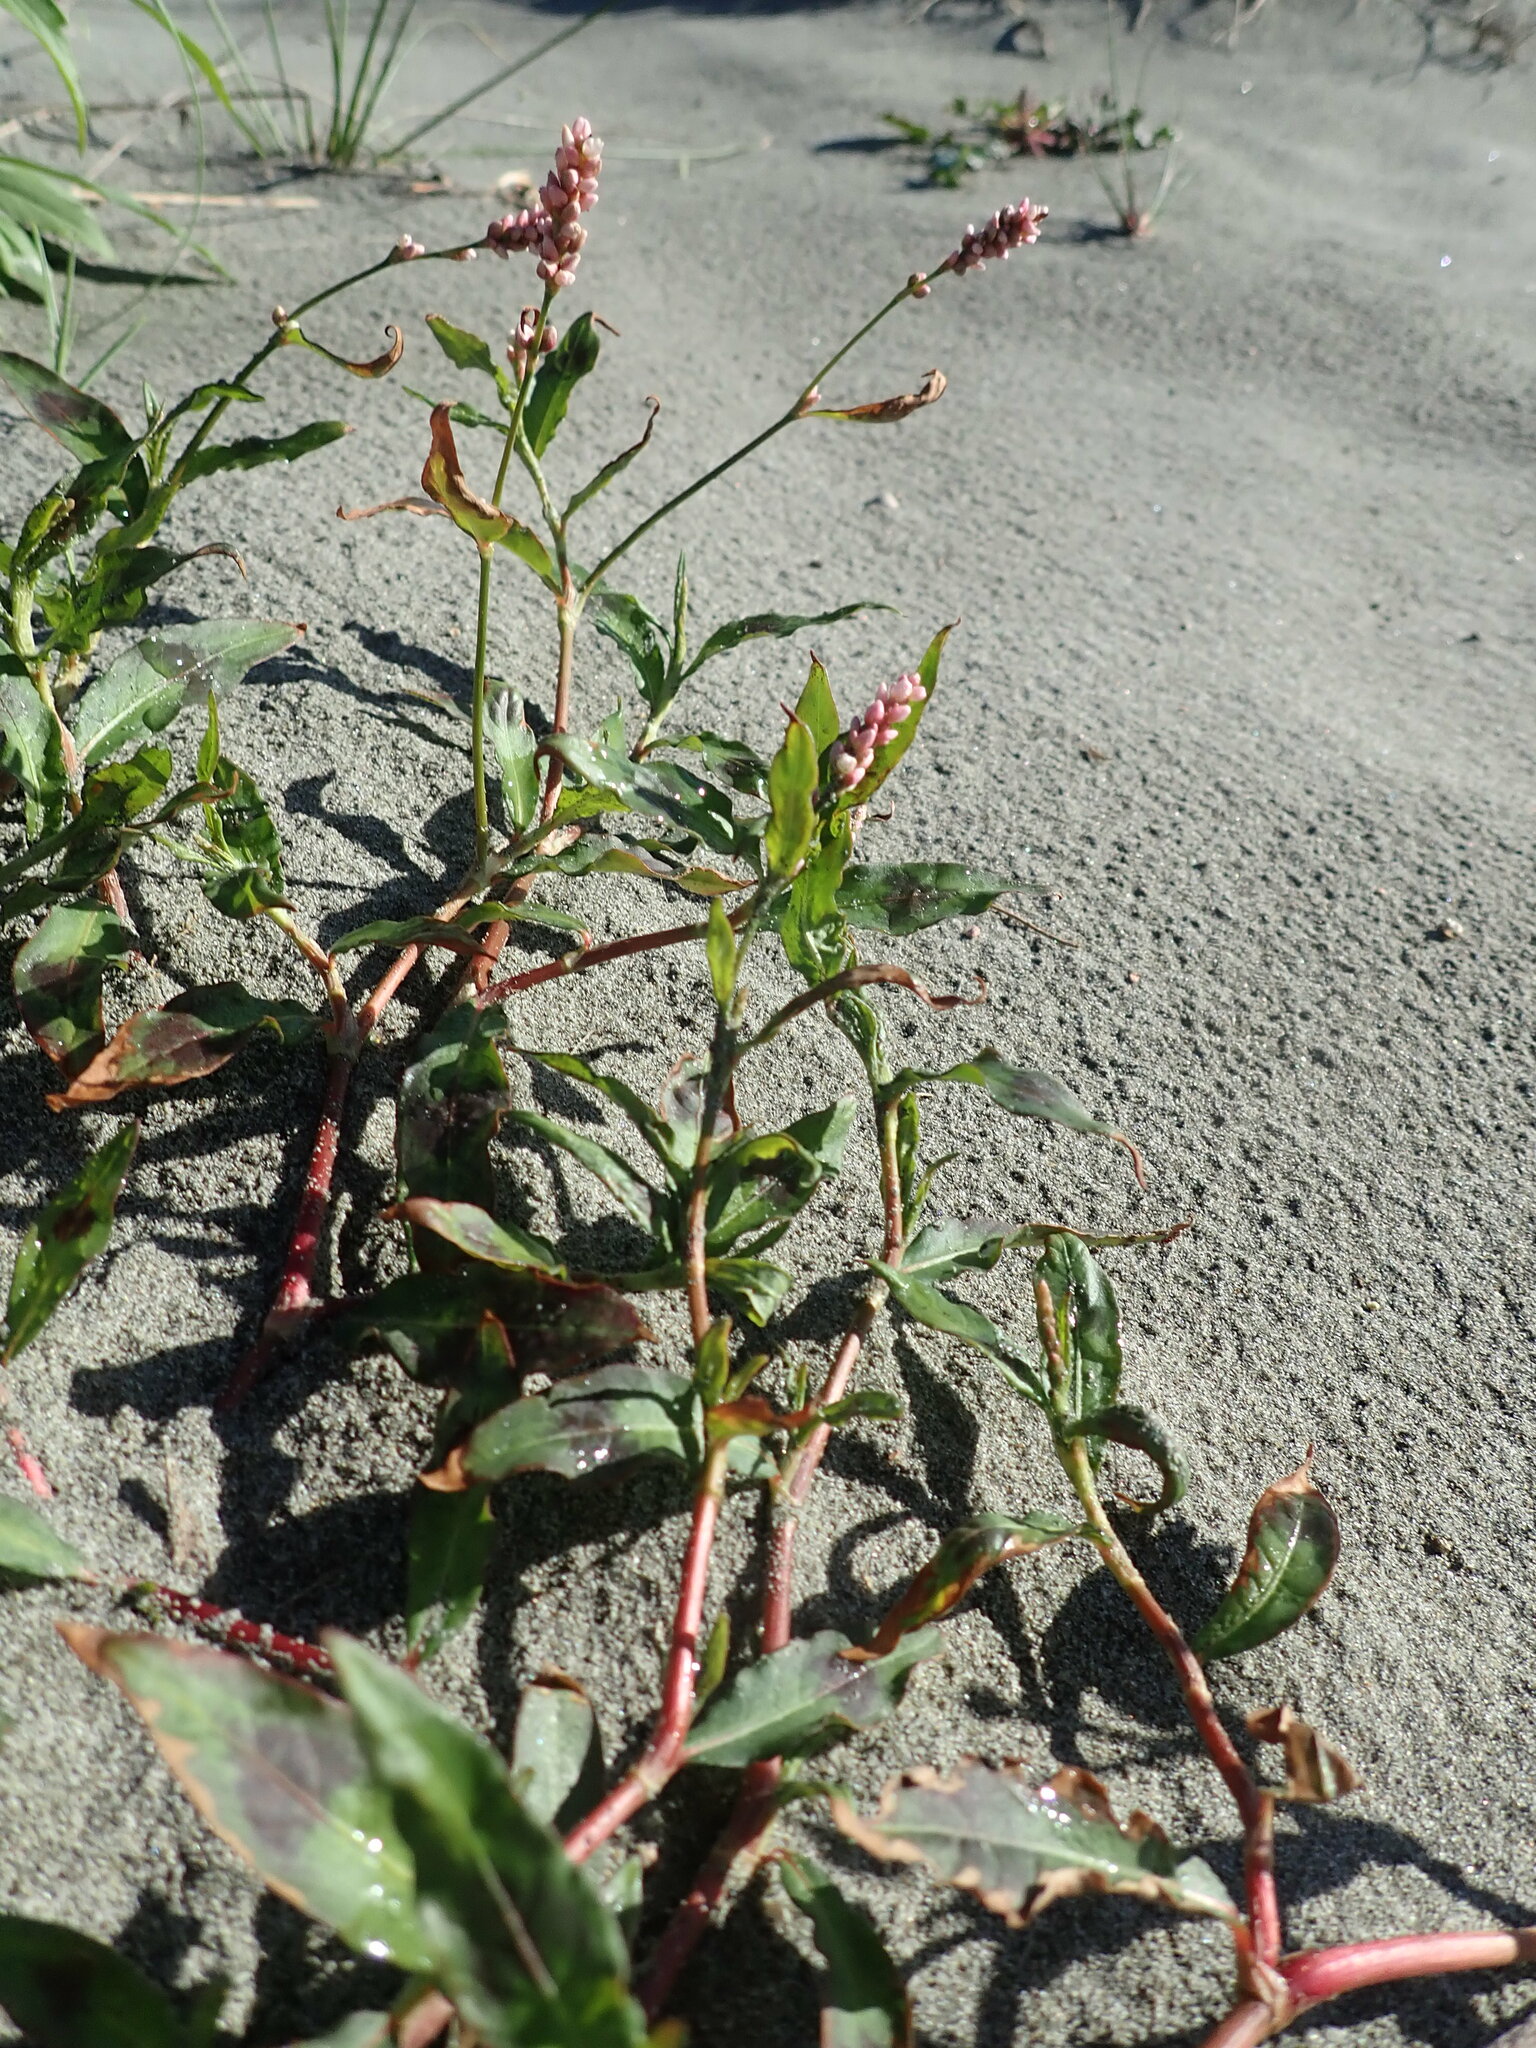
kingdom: Plantae
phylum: Tracheophyta
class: Magnoliopsida
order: Caryophyllales
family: Polygonaceae
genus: Persicaria
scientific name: Persicaria maculosa
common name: Redshank
